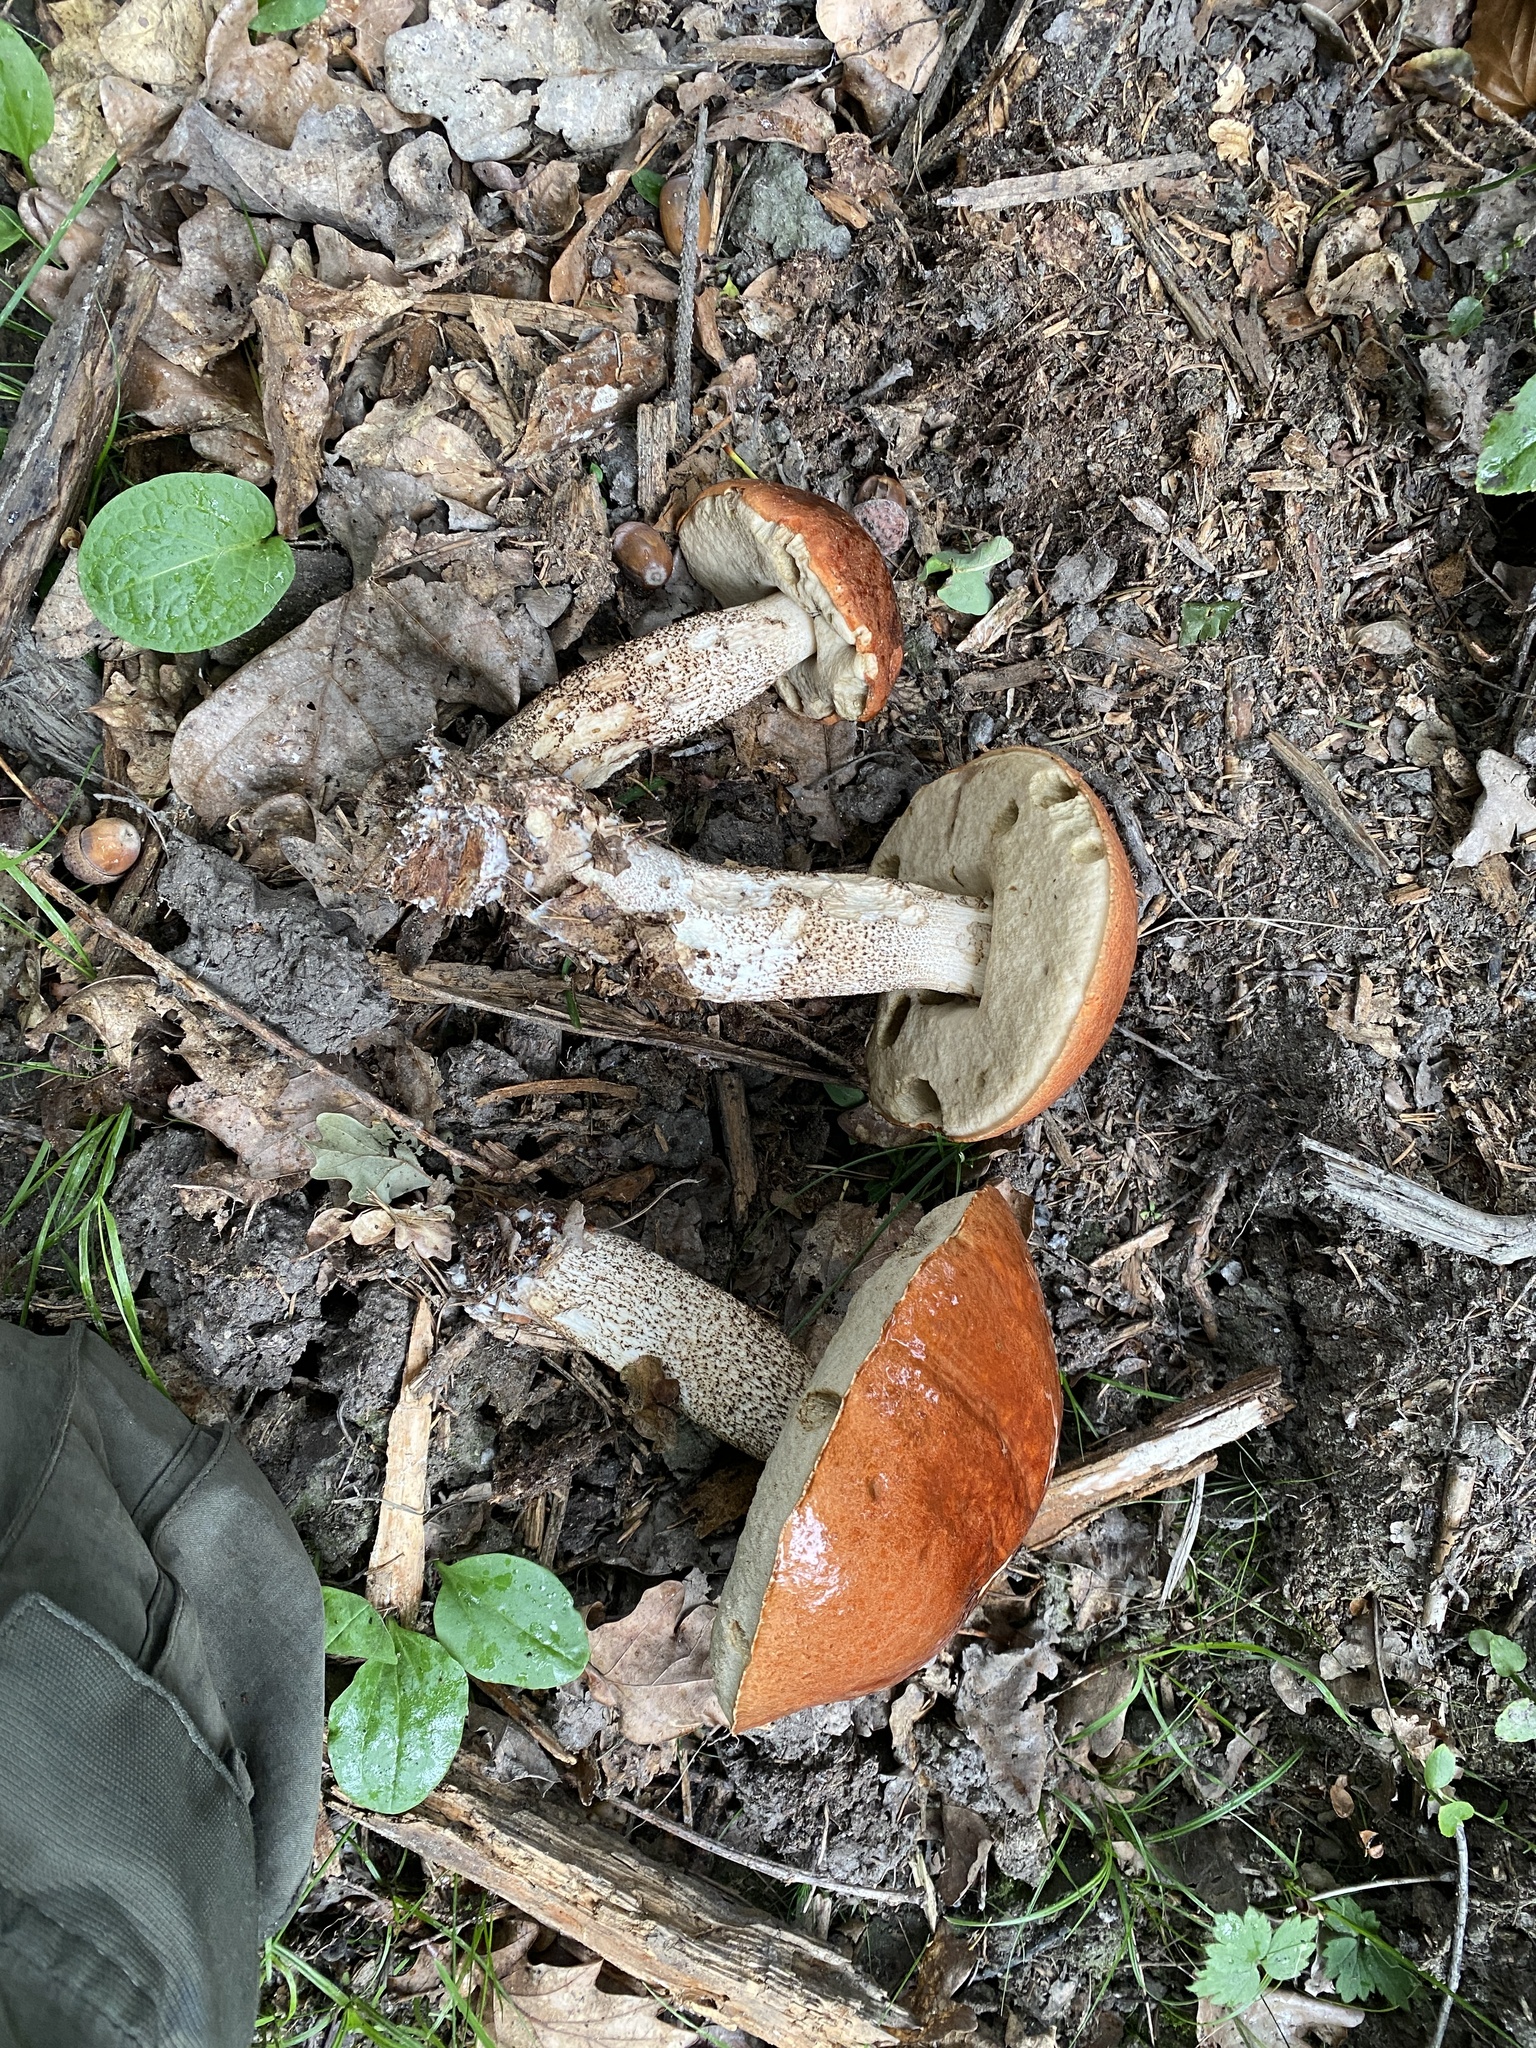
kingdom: Fungi
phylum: Basidiomycota
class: Agaricomycetes
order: Boletales
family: Boletaceae
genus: Leccinum
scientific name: Leccinum aurantiacum
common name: Orange bolete
